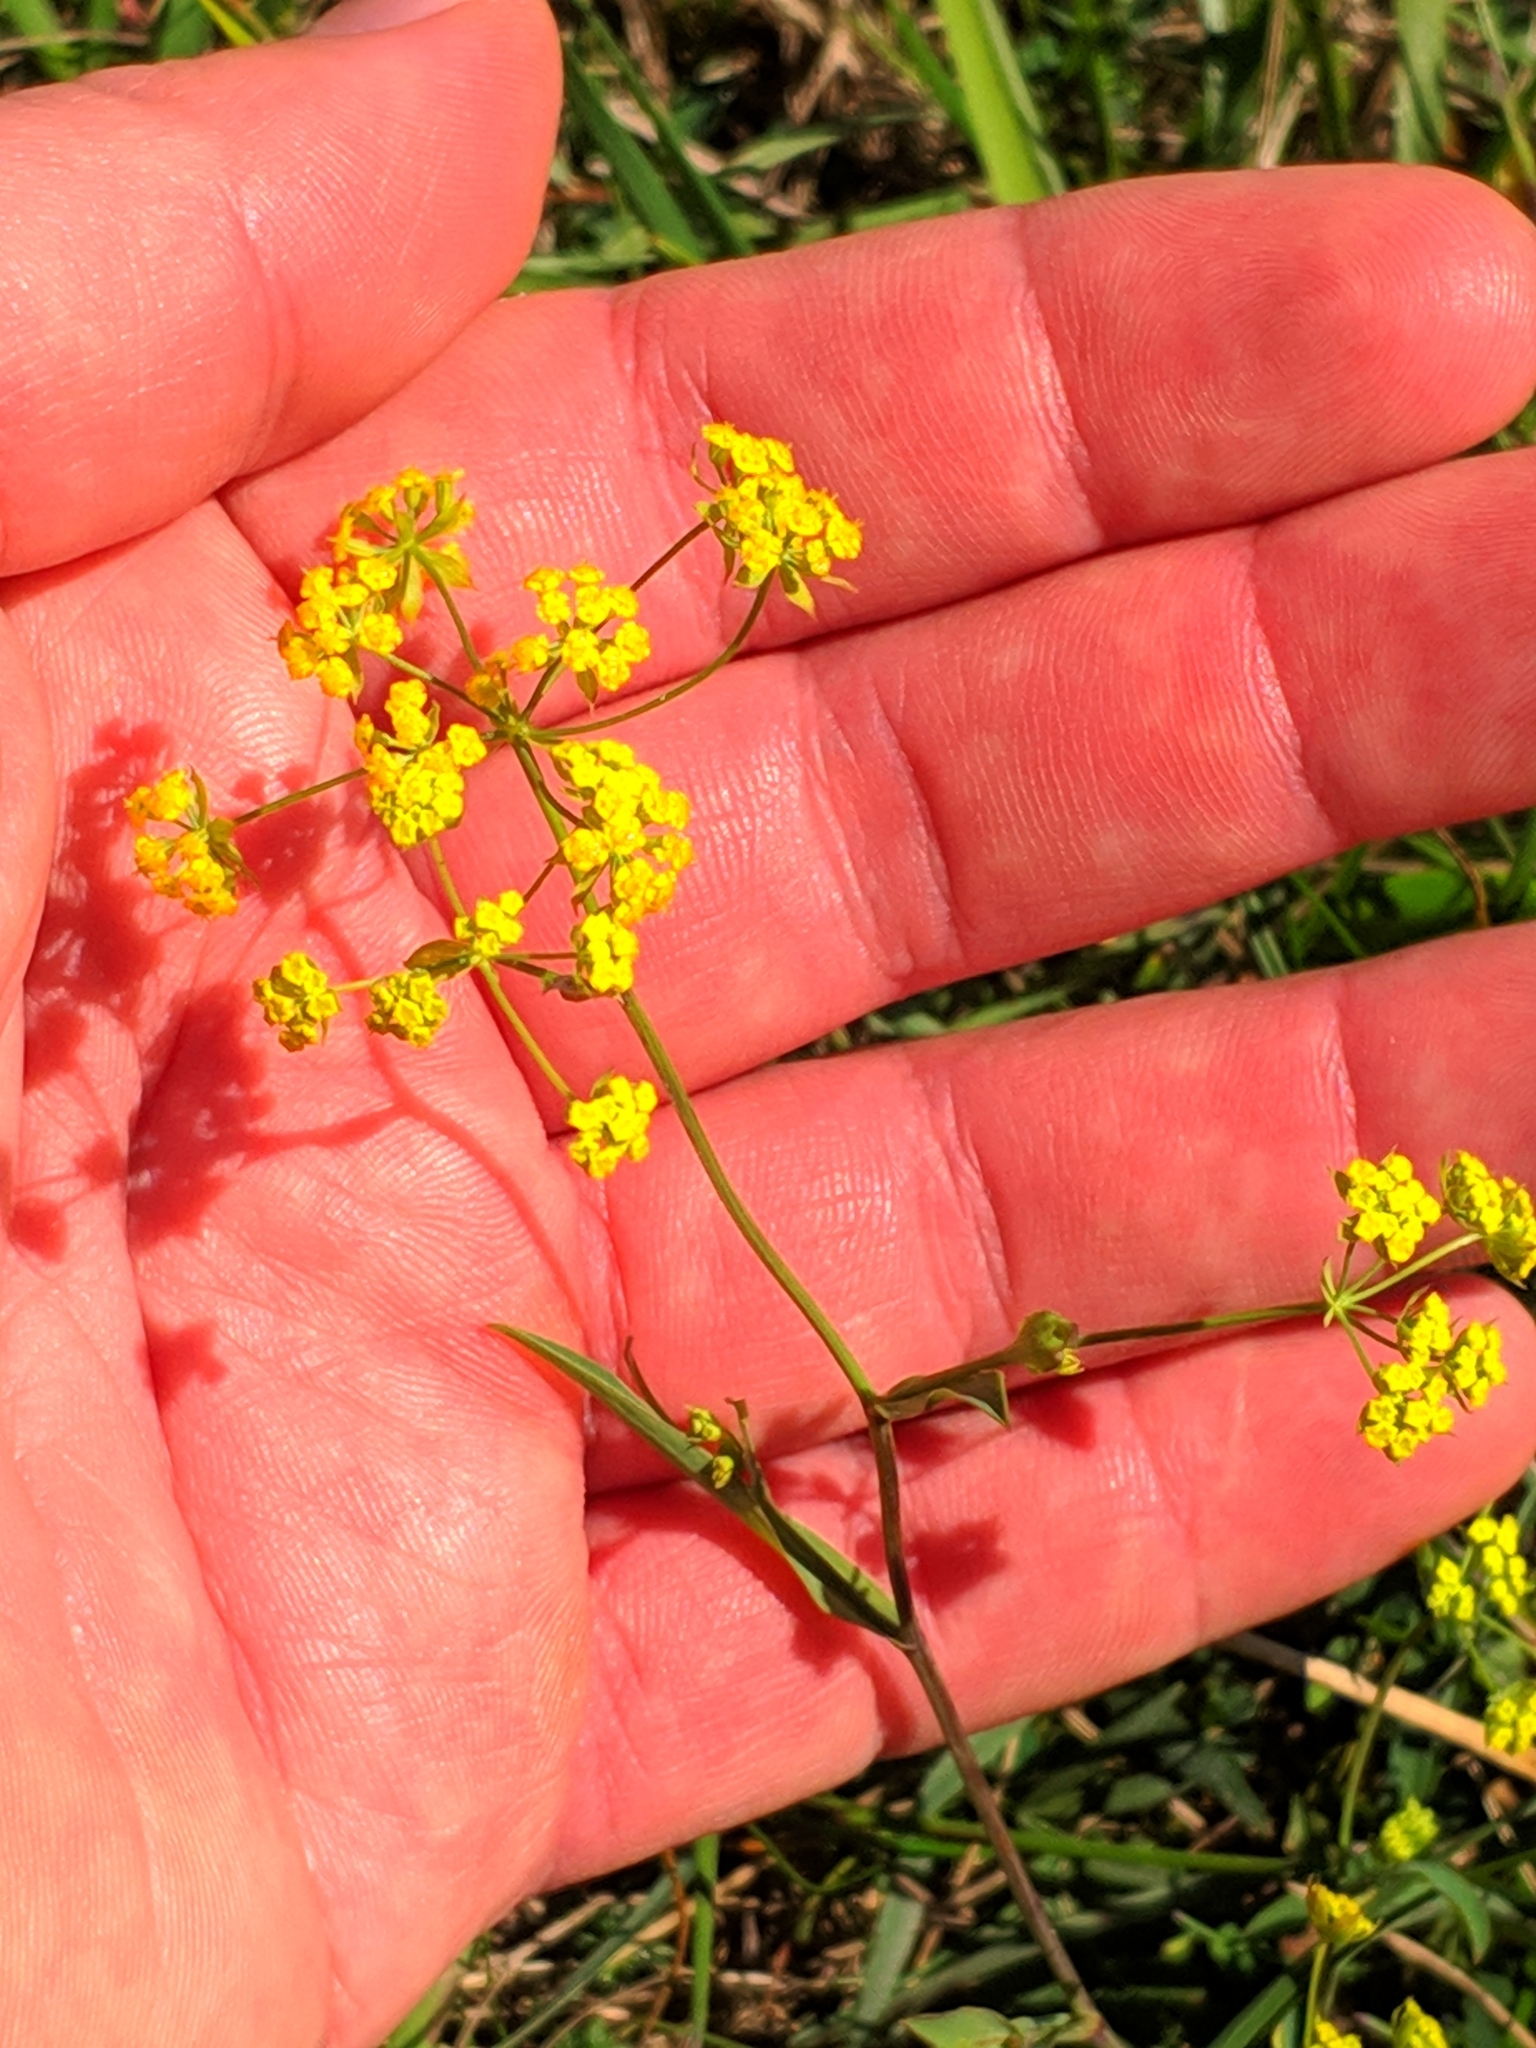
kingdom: Plantae
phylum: Tracheophyta
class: Magnoliopsida
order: Apiales
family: Apiaceae
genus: Bupleurum
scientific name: Bupleurum ranunculoides
